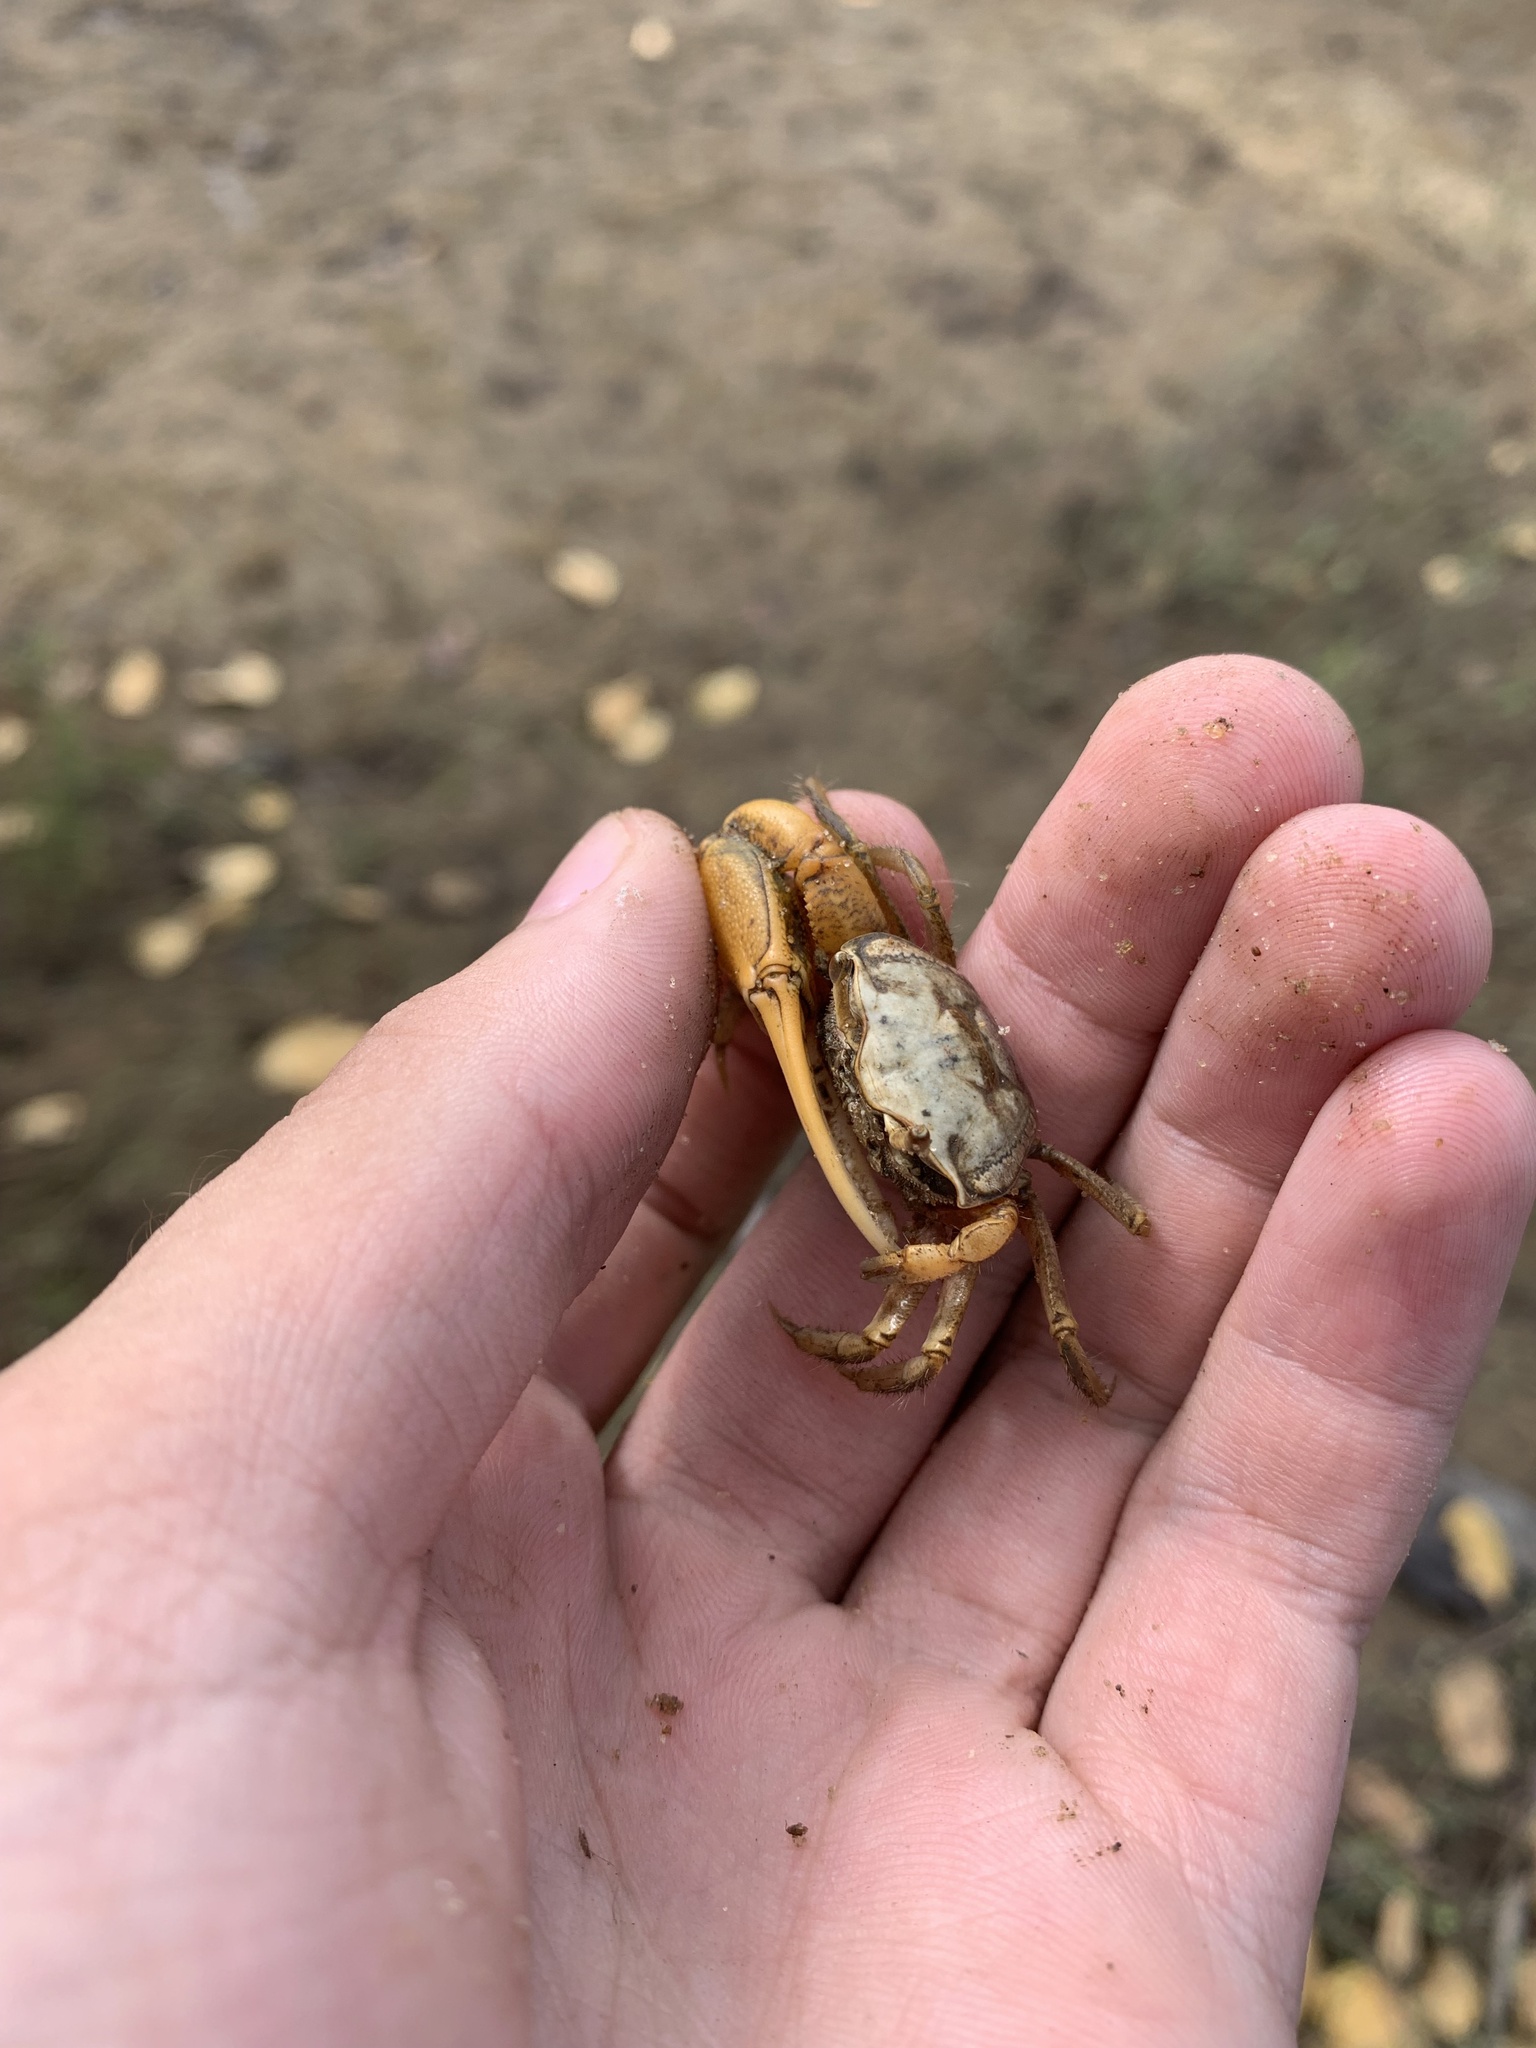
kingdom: Animalia
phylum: Arthropoda
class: Malacostraca
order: Decapoda
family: Ocypodidae
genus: Minuca
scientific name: Minuca
